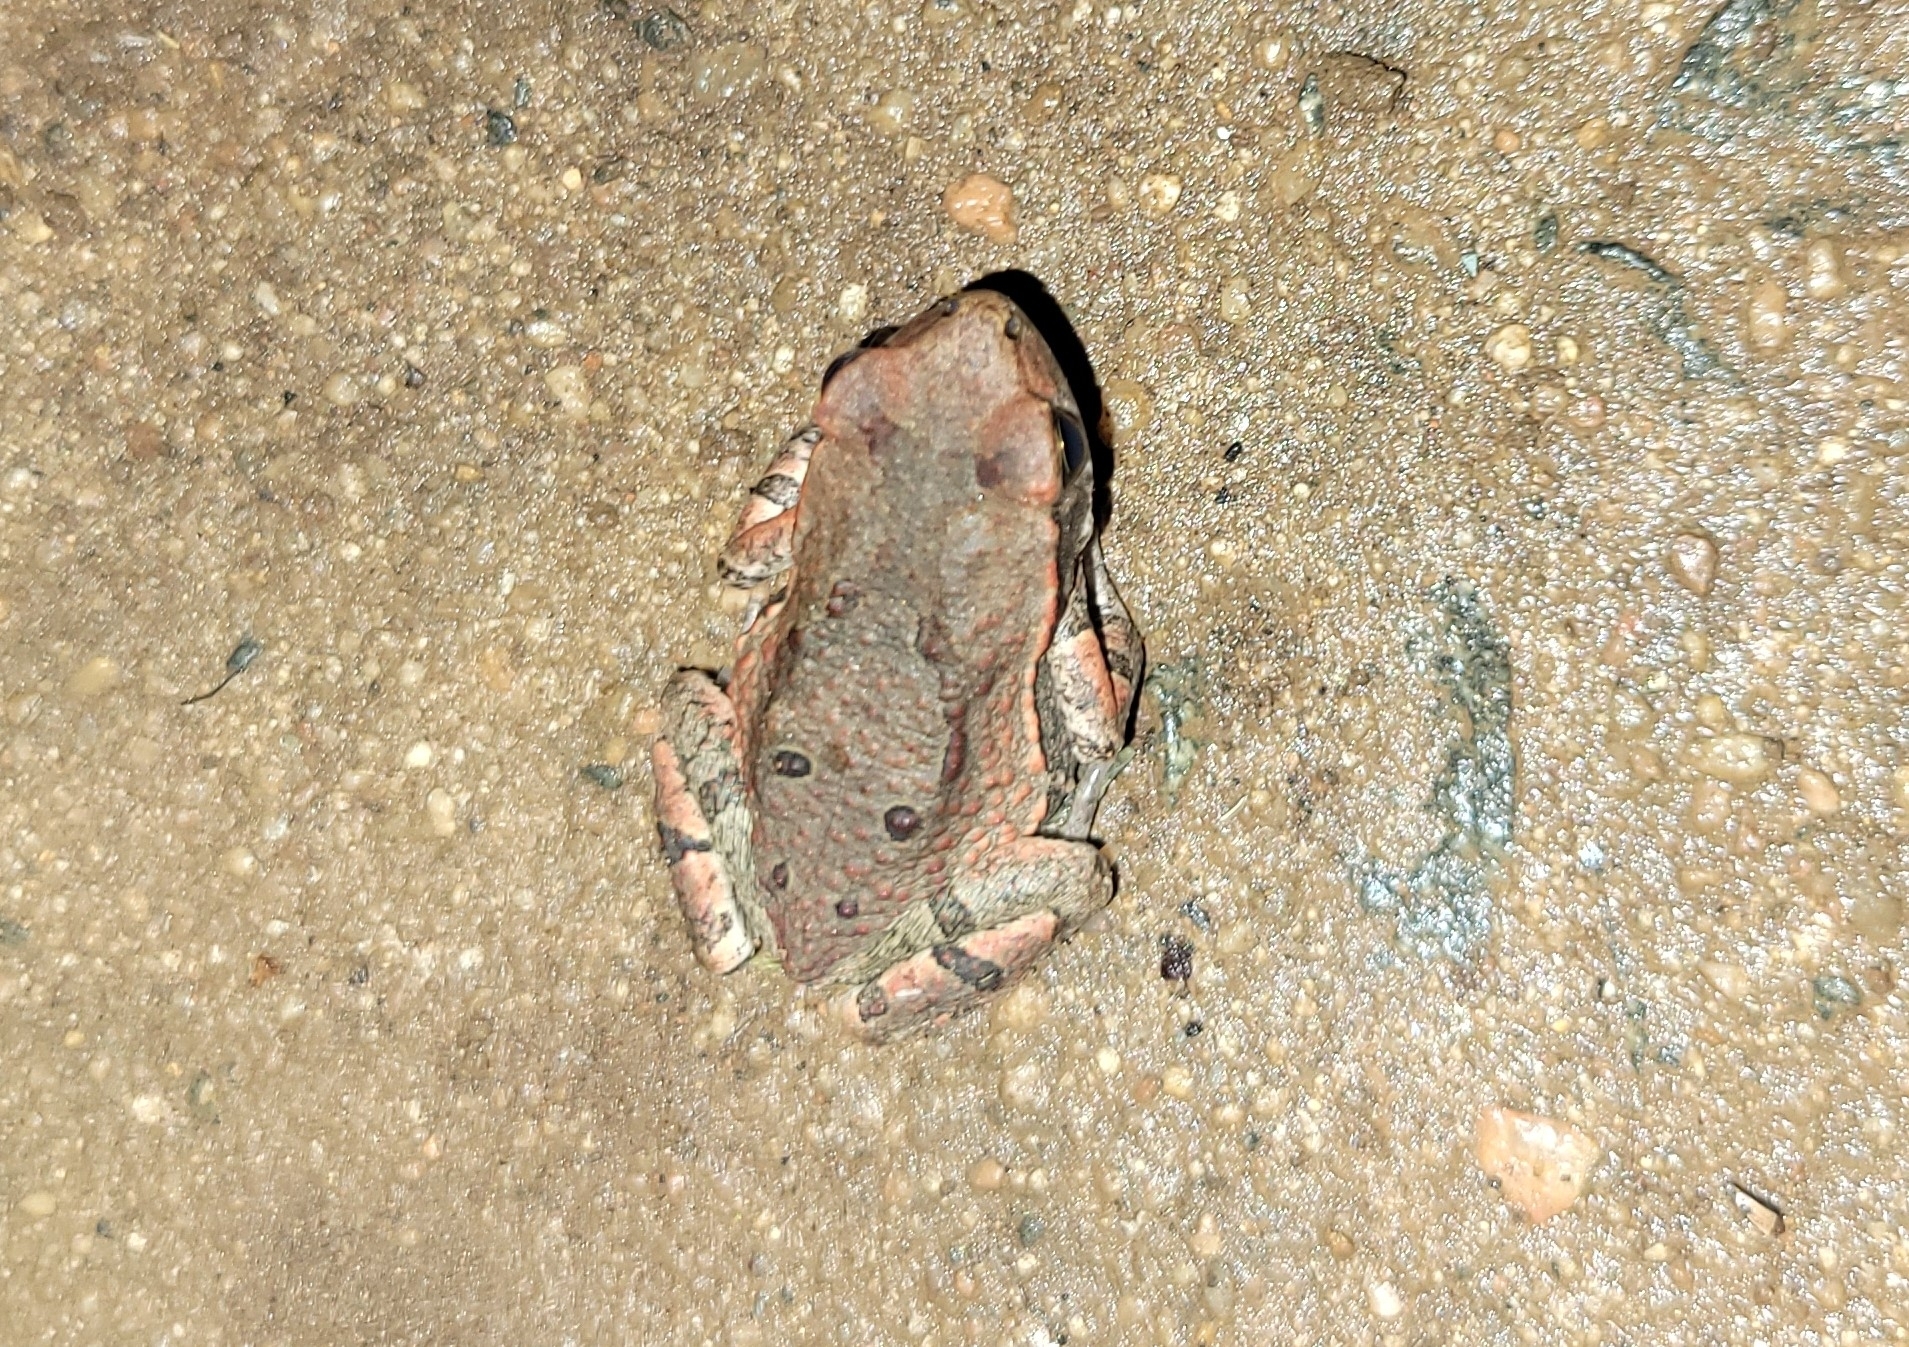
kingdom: Animalia
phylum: Chordata
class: Amphibia
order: Anura
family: Bufonidae
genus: Schismaderma
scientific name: Schismaderma carens
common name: African split-skin toad
